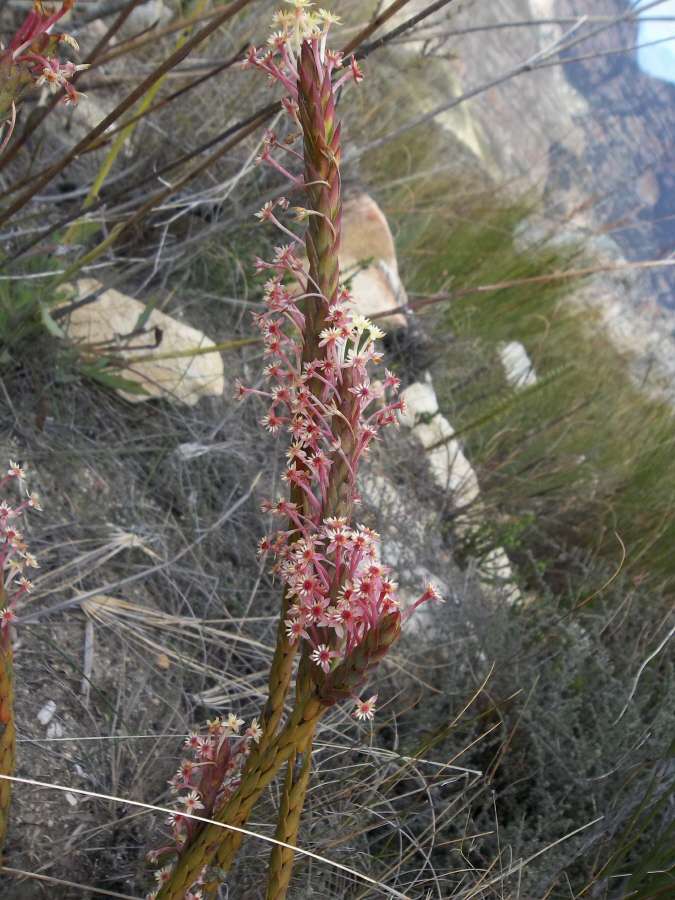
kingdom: Plantae
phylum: Tracheophyta
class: Magnoliopsida
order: Malvales
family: Thymelaeaceae
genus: Struthiola
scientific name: Struthiola macowanii
